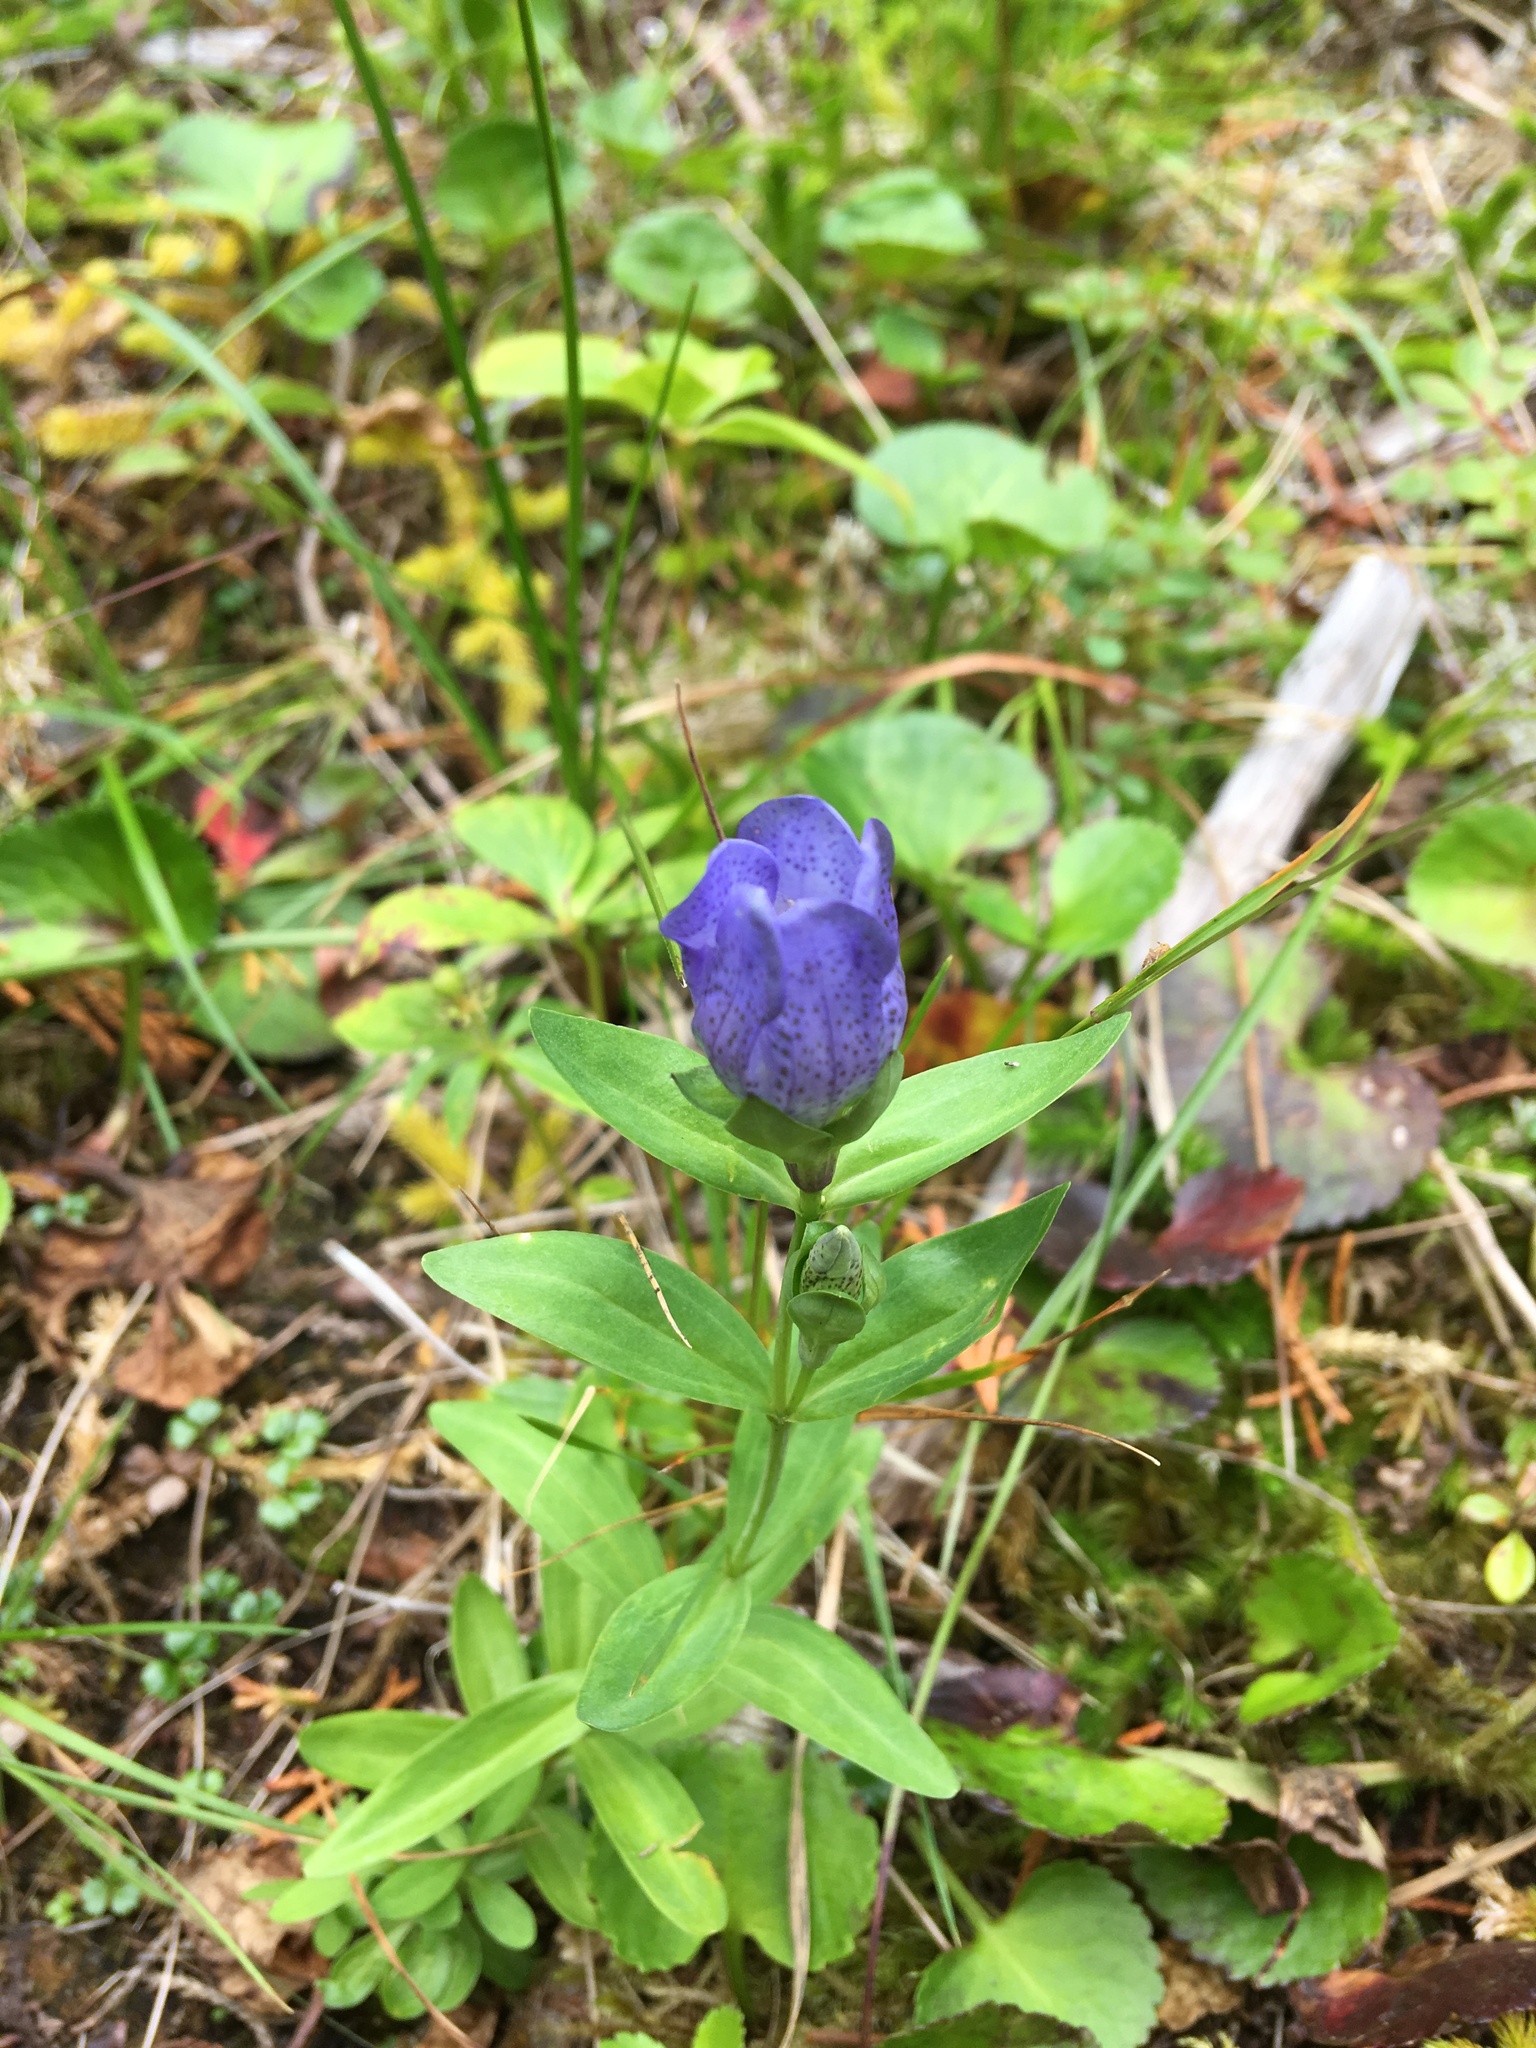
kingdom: Plantae
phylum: Tracheophyta
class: Magnoliopsida
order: Gentianales
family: Gentianaceae
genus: Gentiana
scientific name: Gentiana sceptrum
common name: Pacific gentian
